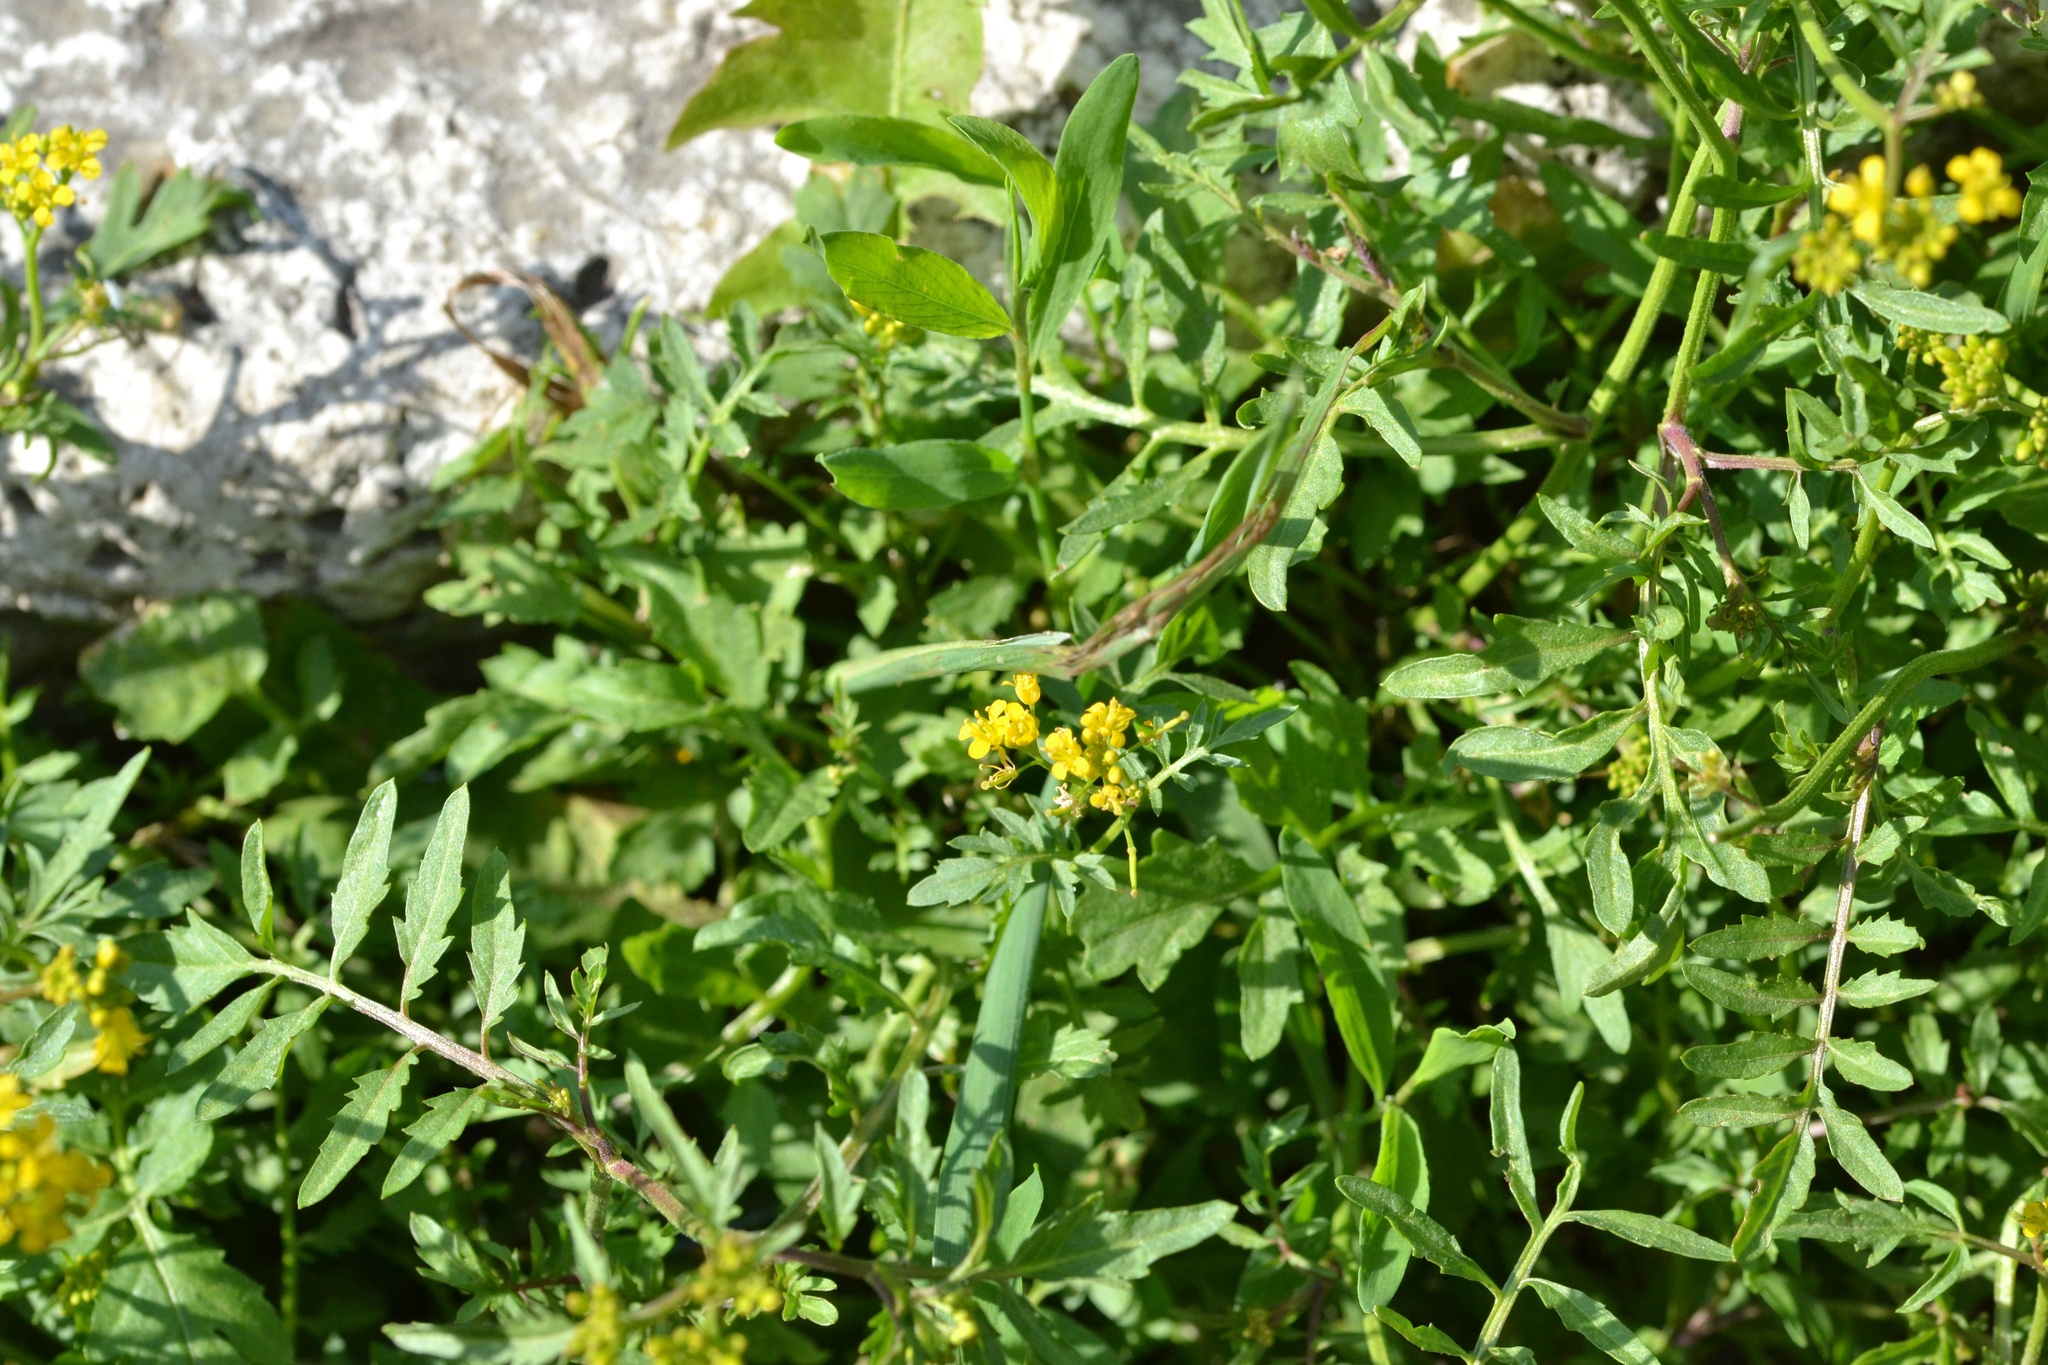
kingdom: Plantae
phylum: Tracheophyta
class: Magnoliopsida
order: Brassicales
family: Brassicaceae
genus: Rorippa
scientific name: Rorippa sylvestris
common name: Creeping yellowcress
